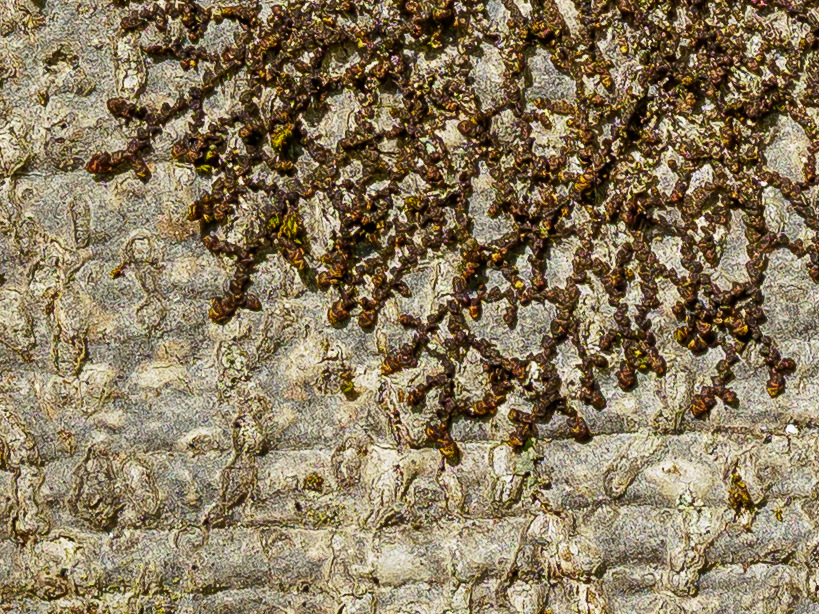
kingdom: Plantae
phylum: Marchantiophyta
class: Jungermanniopsida
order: Porellales
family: Frullaniaceae
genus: Frullania
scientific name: Frullania dilatata
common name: Dilated scalewort
